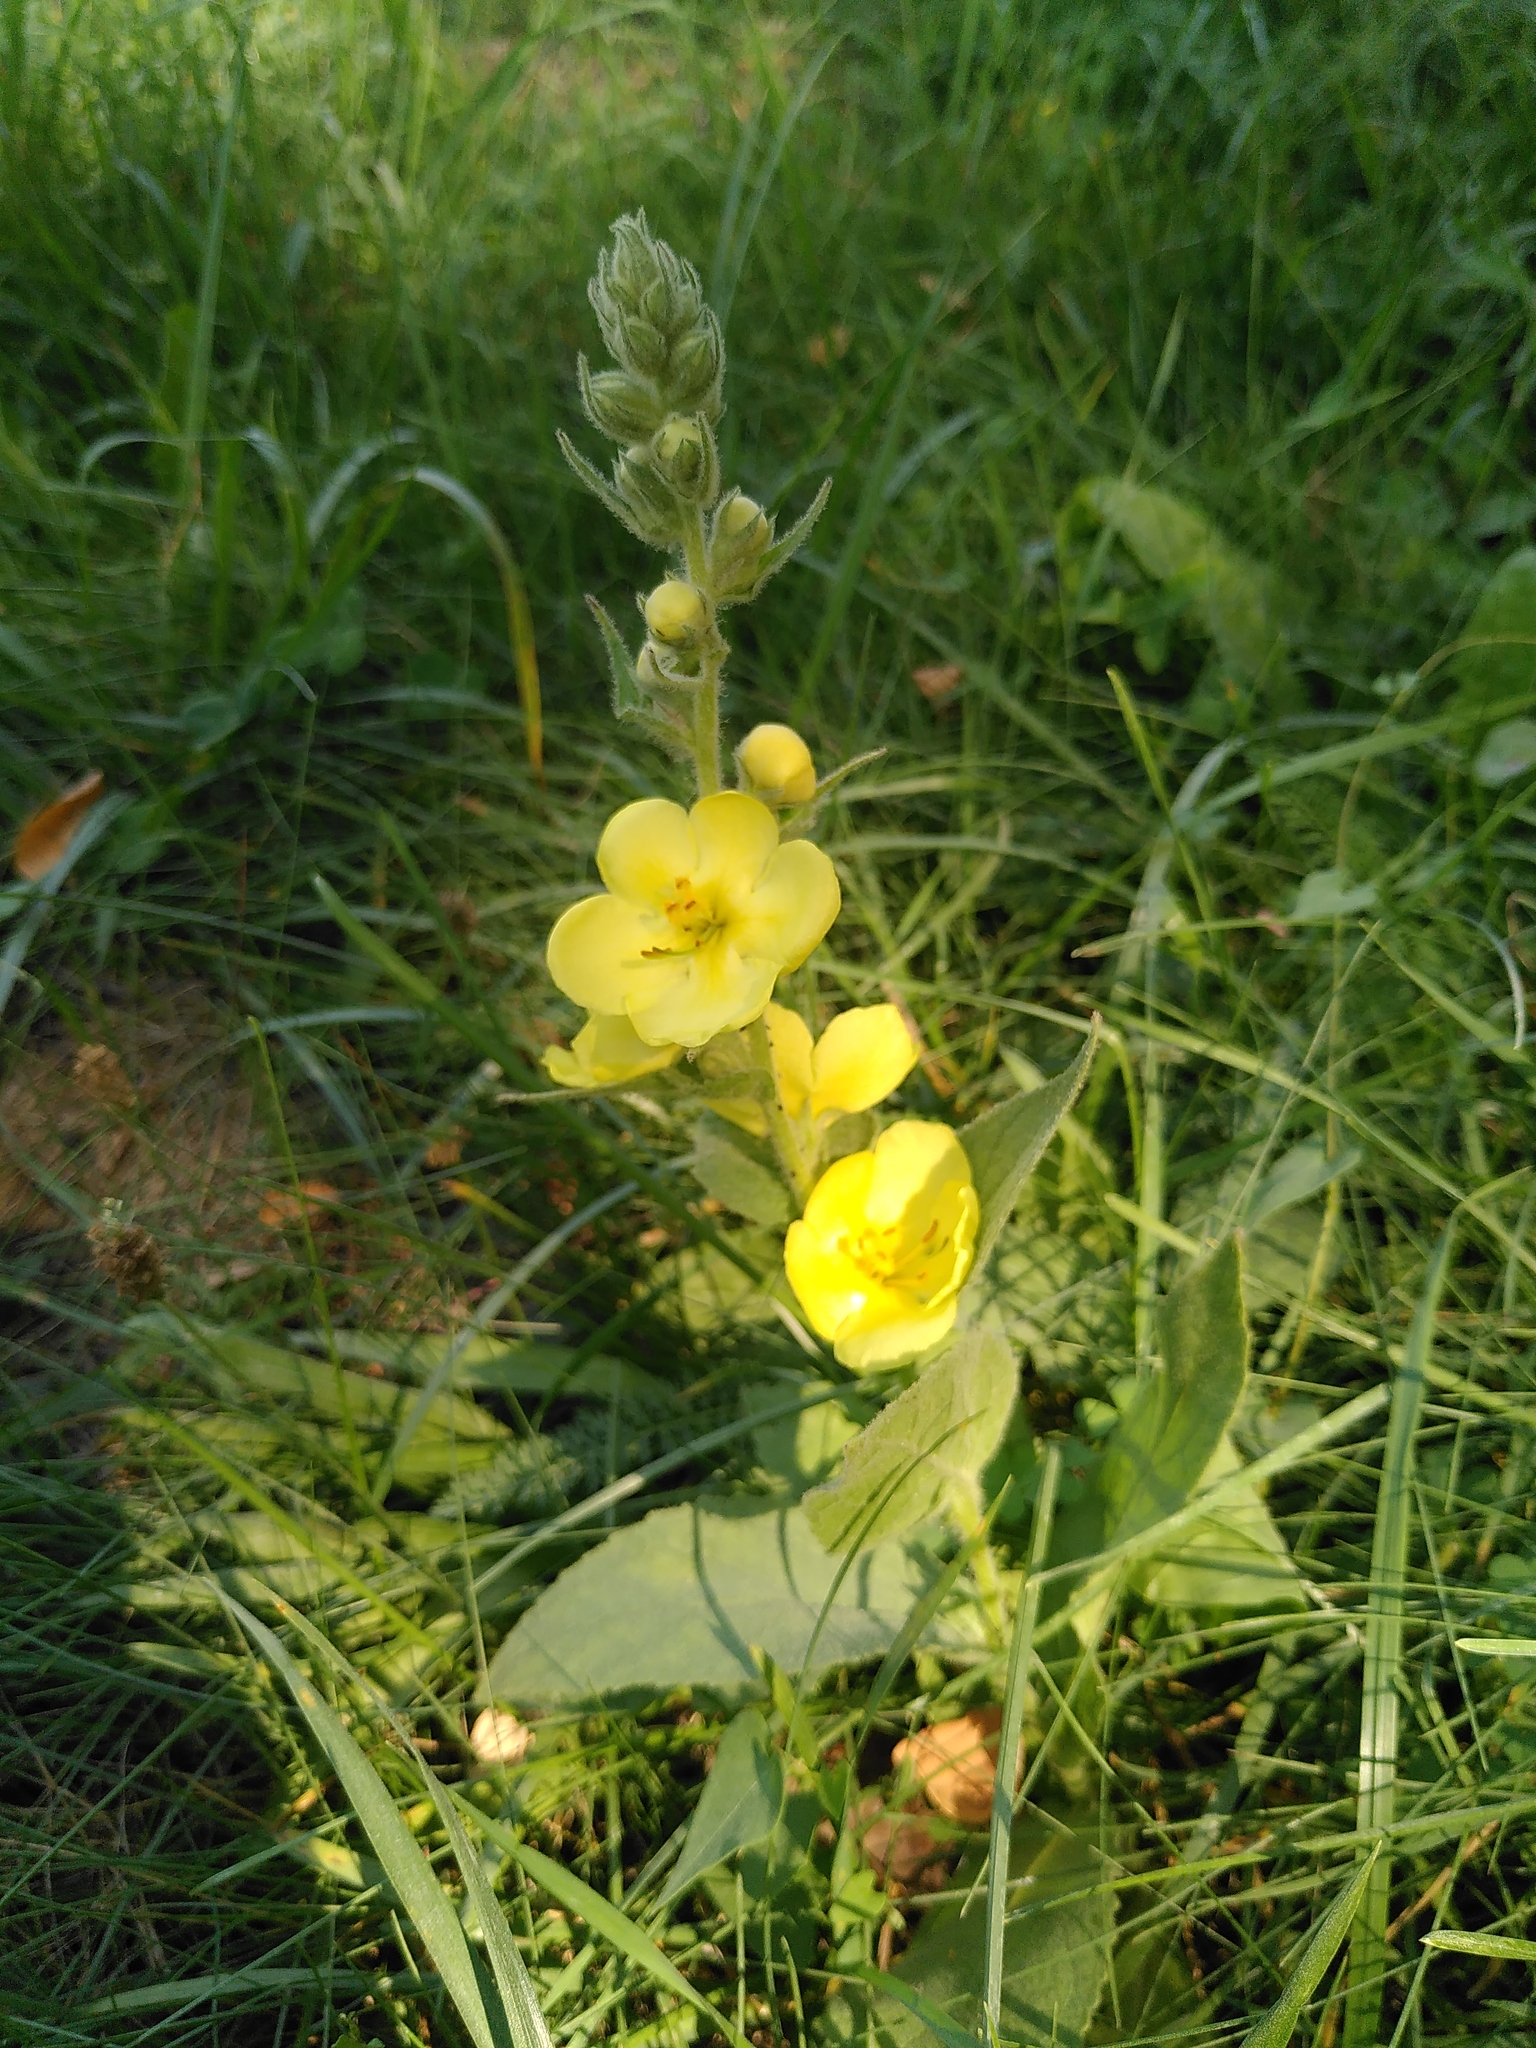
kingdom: Plantae
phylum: Tracheophyta
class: Magnoliopsida
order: Lamiales
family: Scrophulariaceae
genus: Verbascum
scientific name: Verbascum phlomoides
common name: Orange mullein
